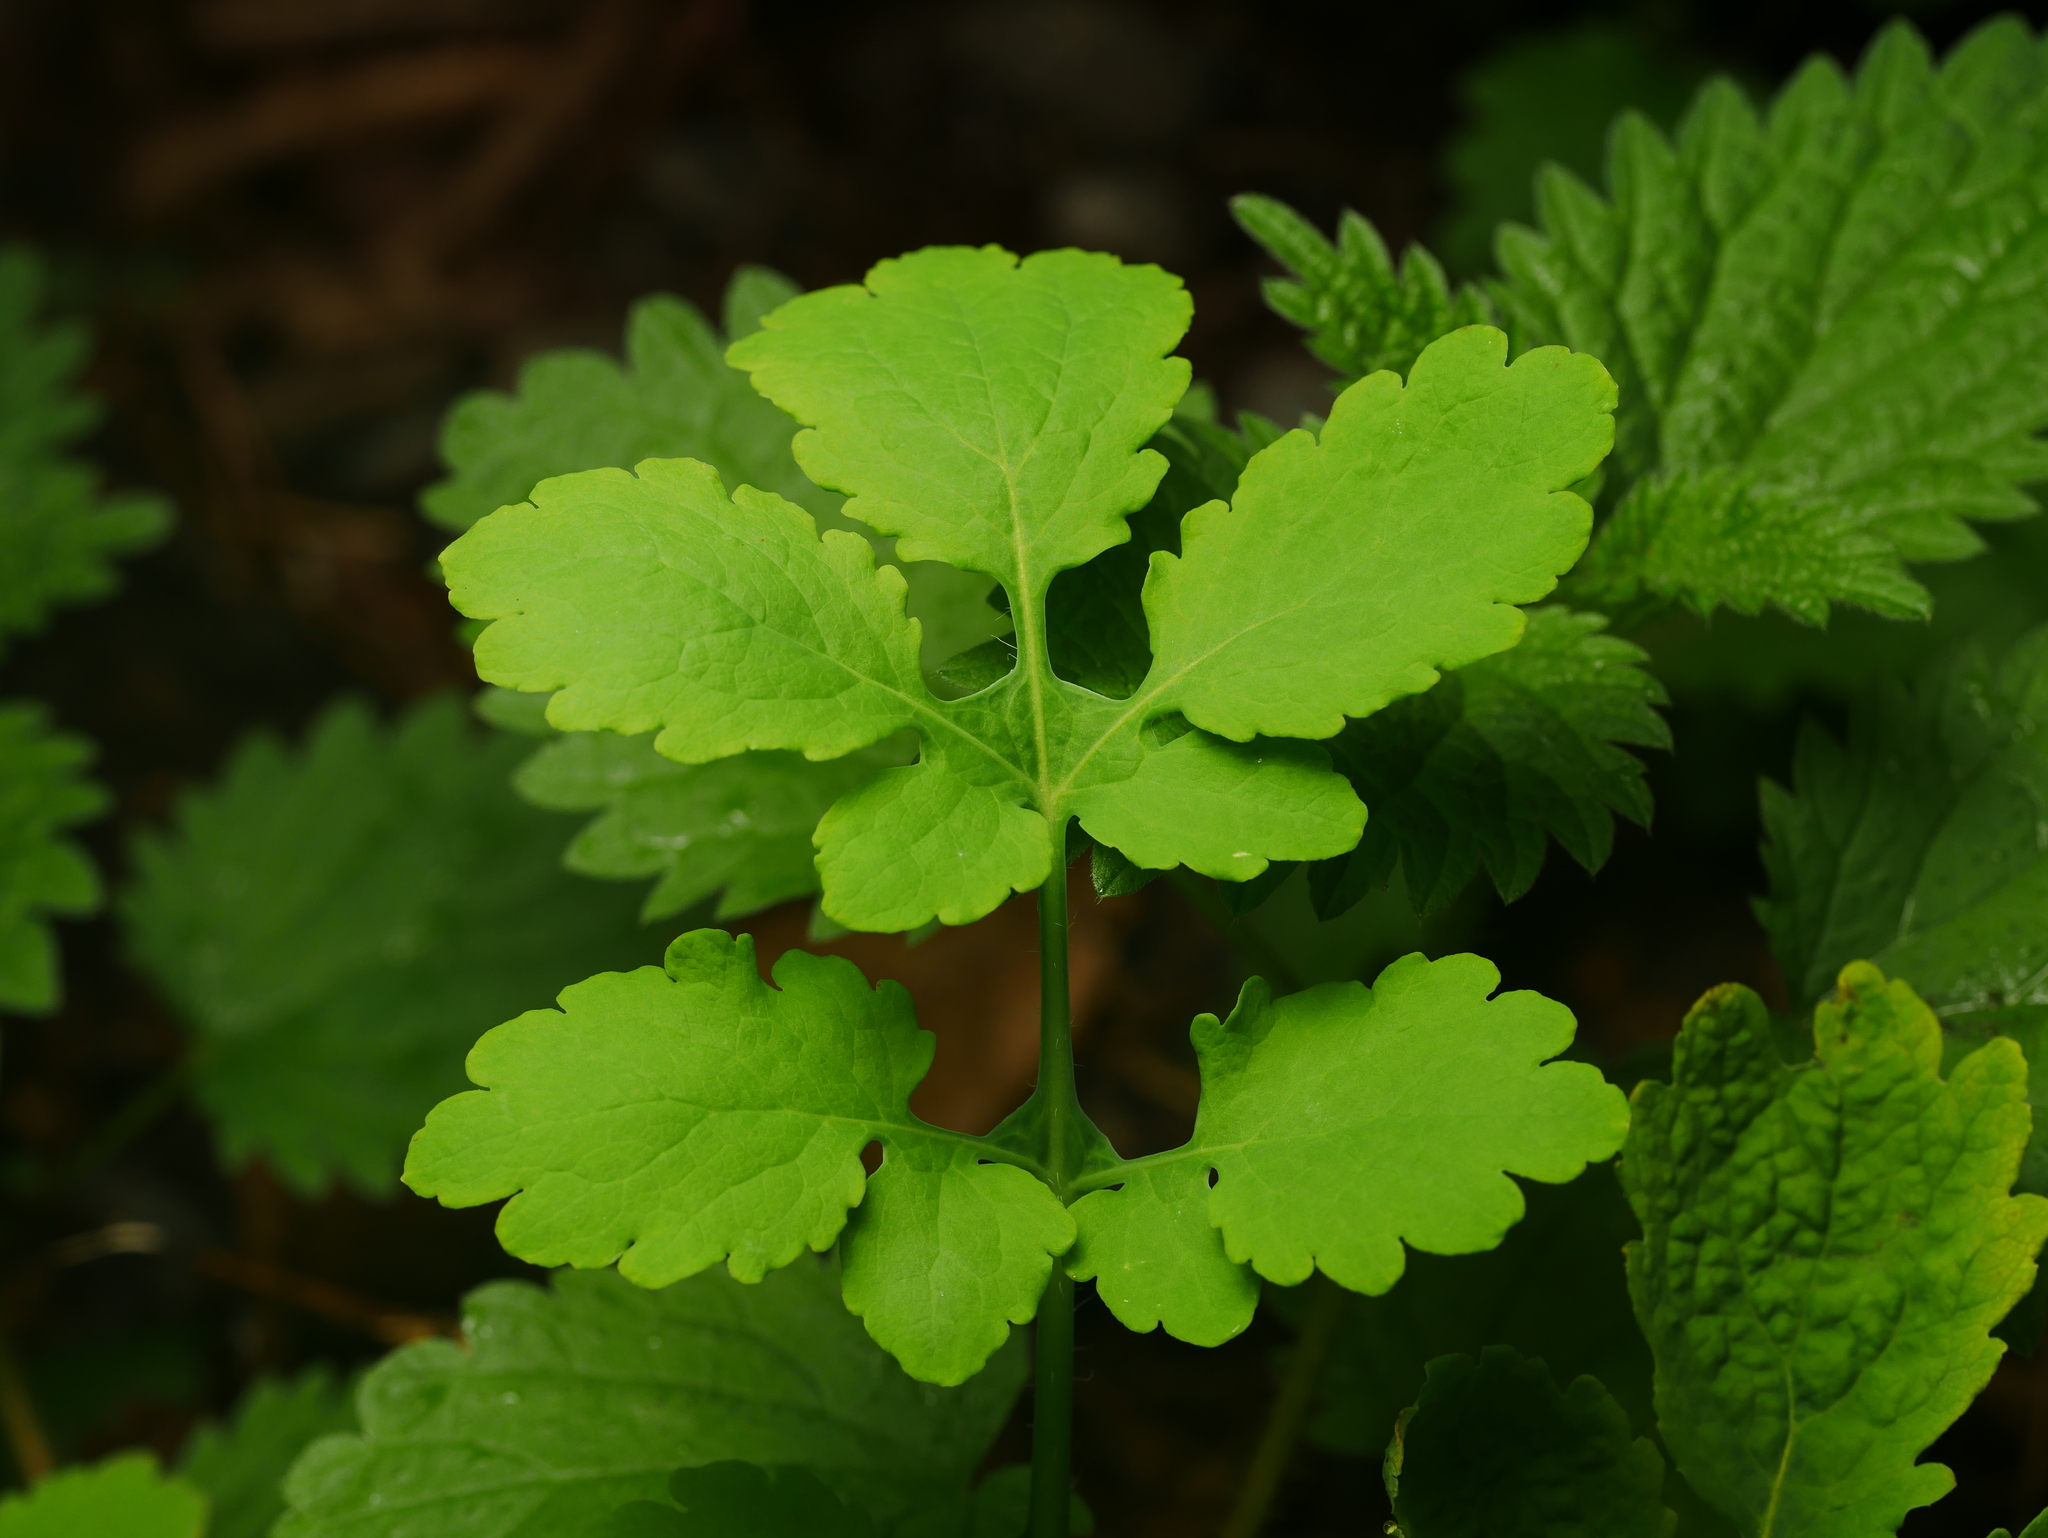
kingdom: Plantae
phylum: Tracheophyta
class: Magnoliopsida
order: Ranunculales
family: Papaveraceae
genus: Chelidonium
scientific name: Chelidonium majus
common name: Greater celandine
